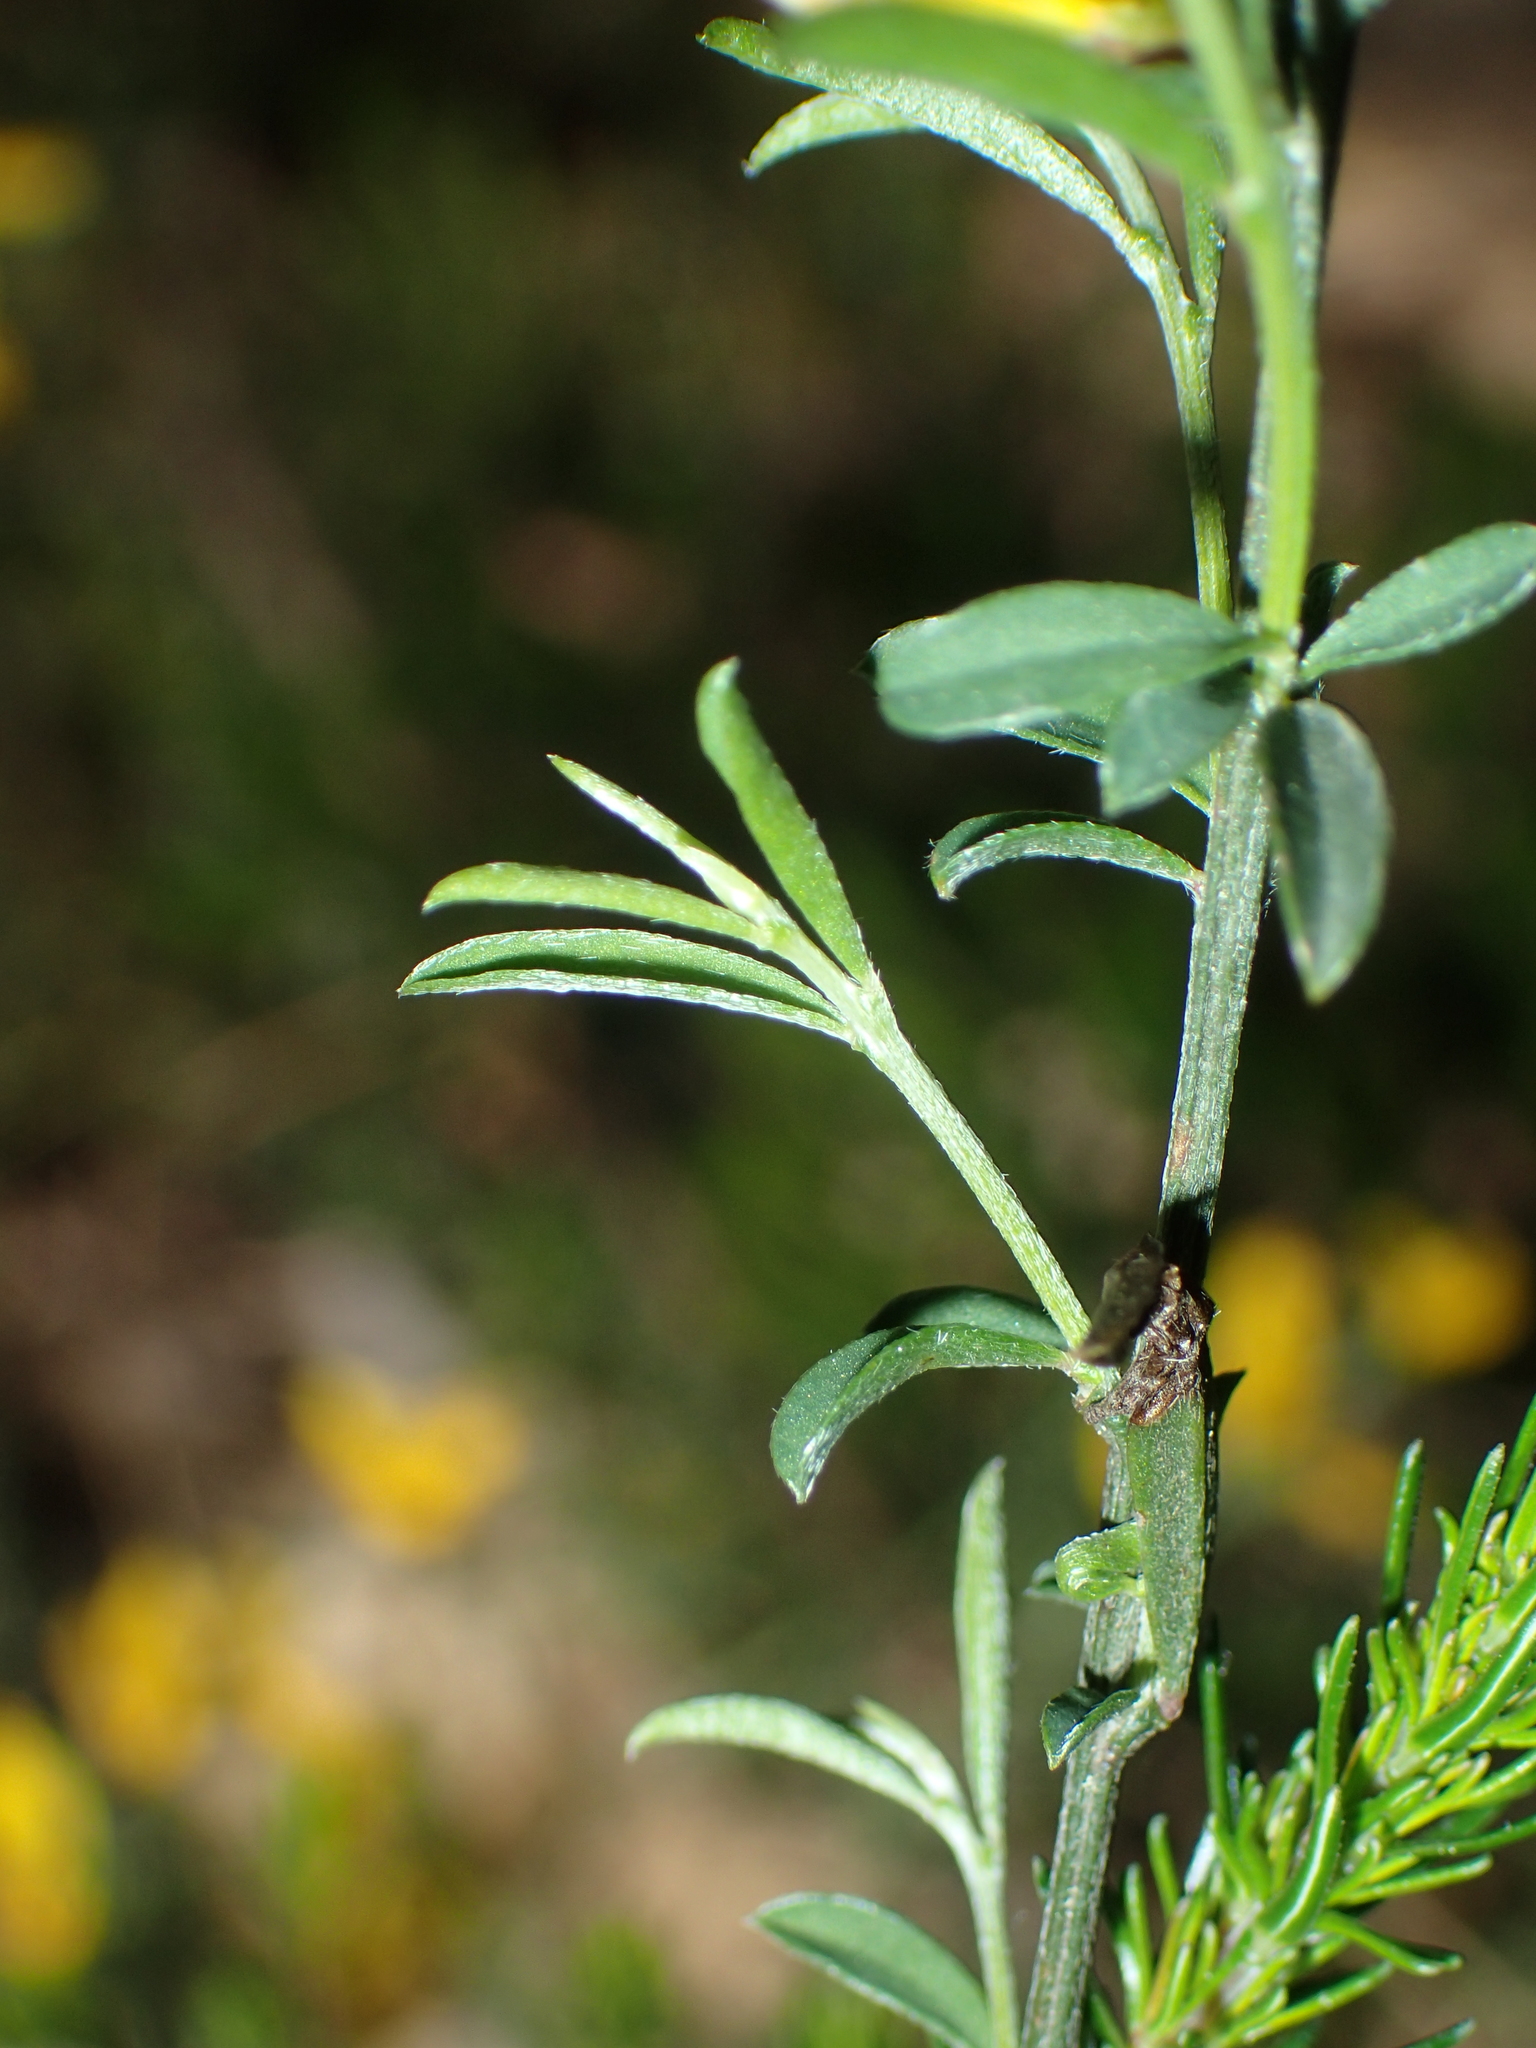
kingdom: Plantae
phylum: Tracheophyta
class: Magnoliopsida
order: Fabales
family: Fabaceae
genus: Genista
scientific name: Genista pilosa
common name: Hairy greenweed
